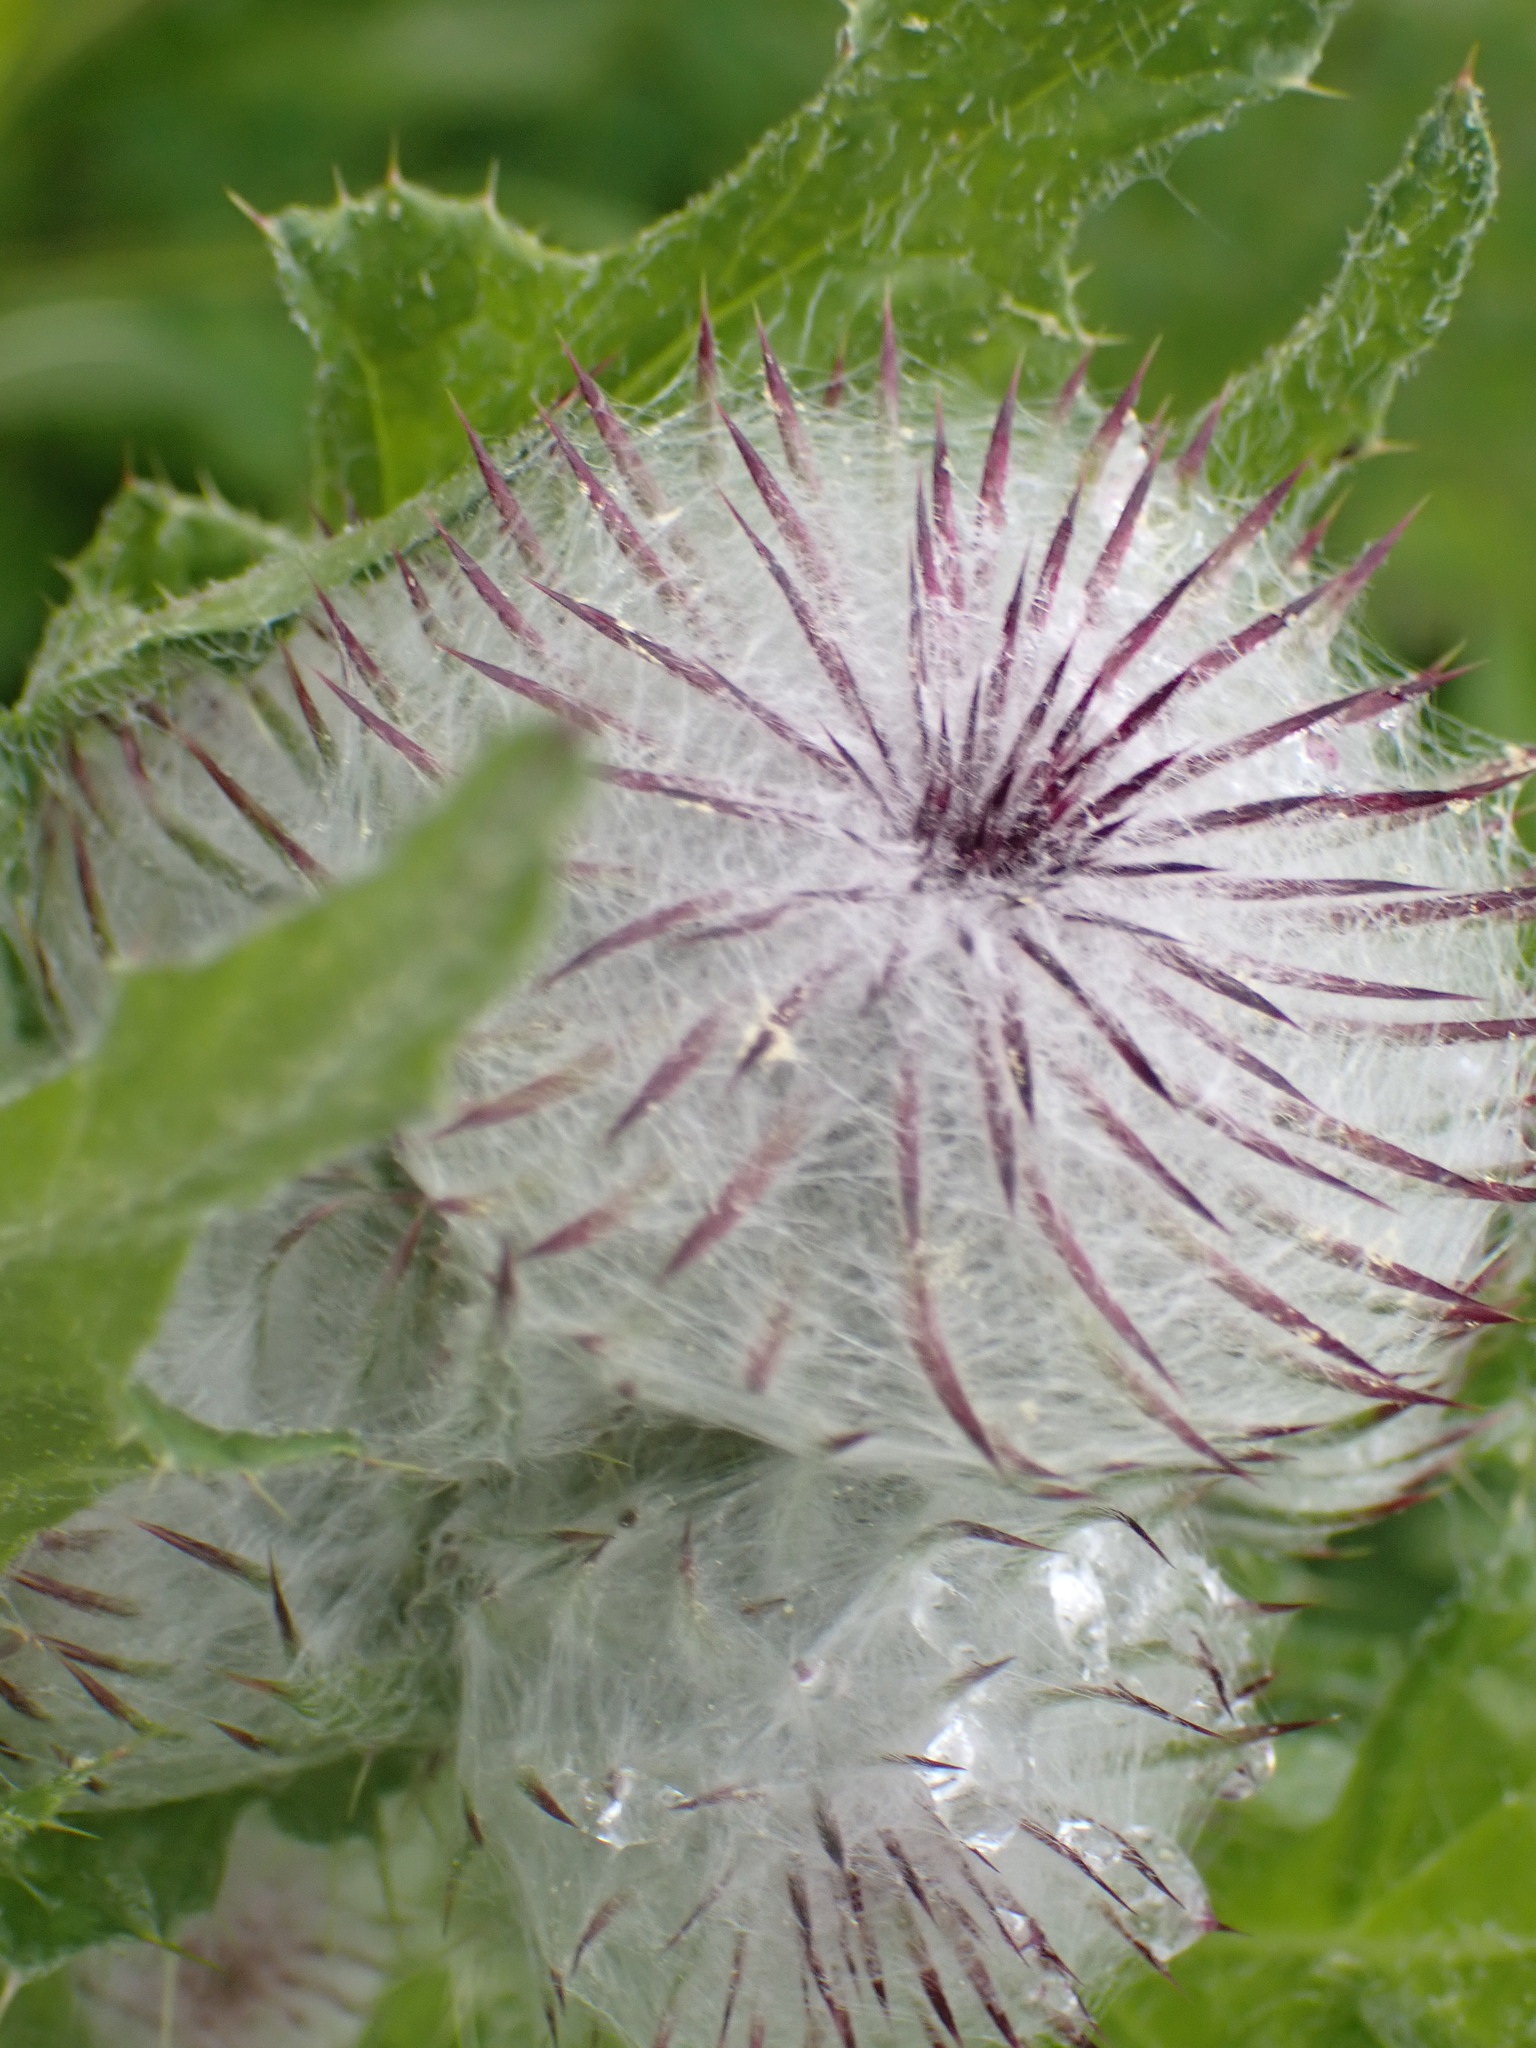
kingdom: Plantae
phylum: Tracheophyta
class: Magnoliopsida
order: Asterales
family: Asteraceae
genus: Cirsium
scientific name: Cirsium edule
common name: Indian thistle
